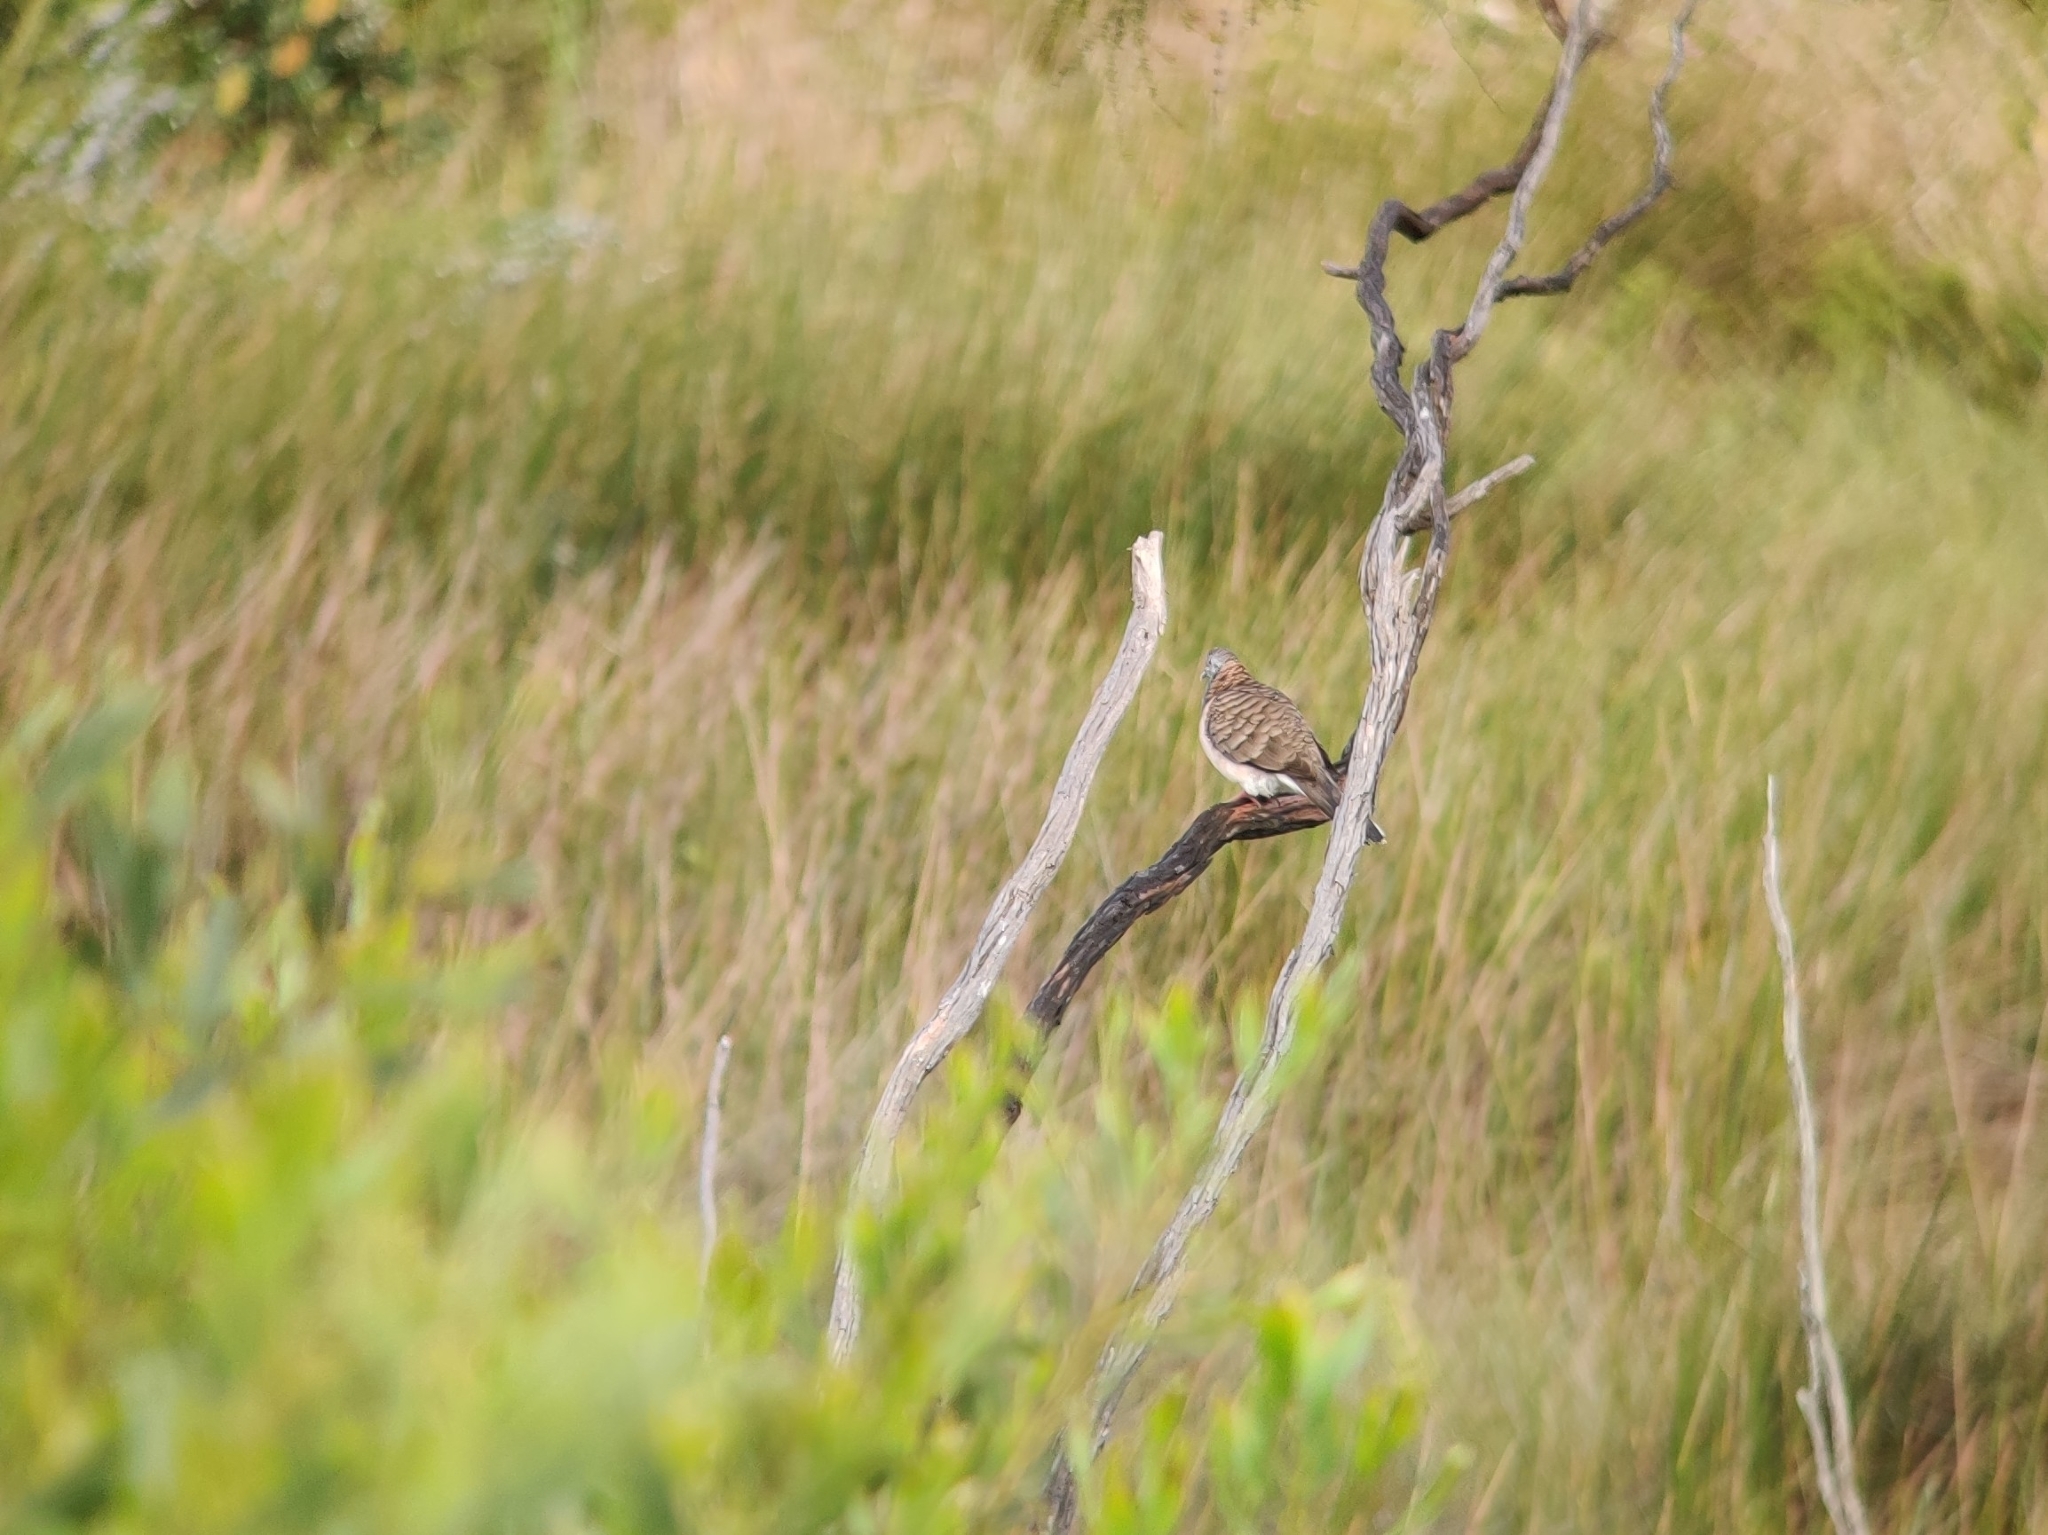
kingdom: Animalia
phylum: Chordata
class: Aves
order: Columbiformes
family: Columbidae
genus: Geopelia
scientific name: Geopelia humeralis
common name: Bar-shouldered dove
